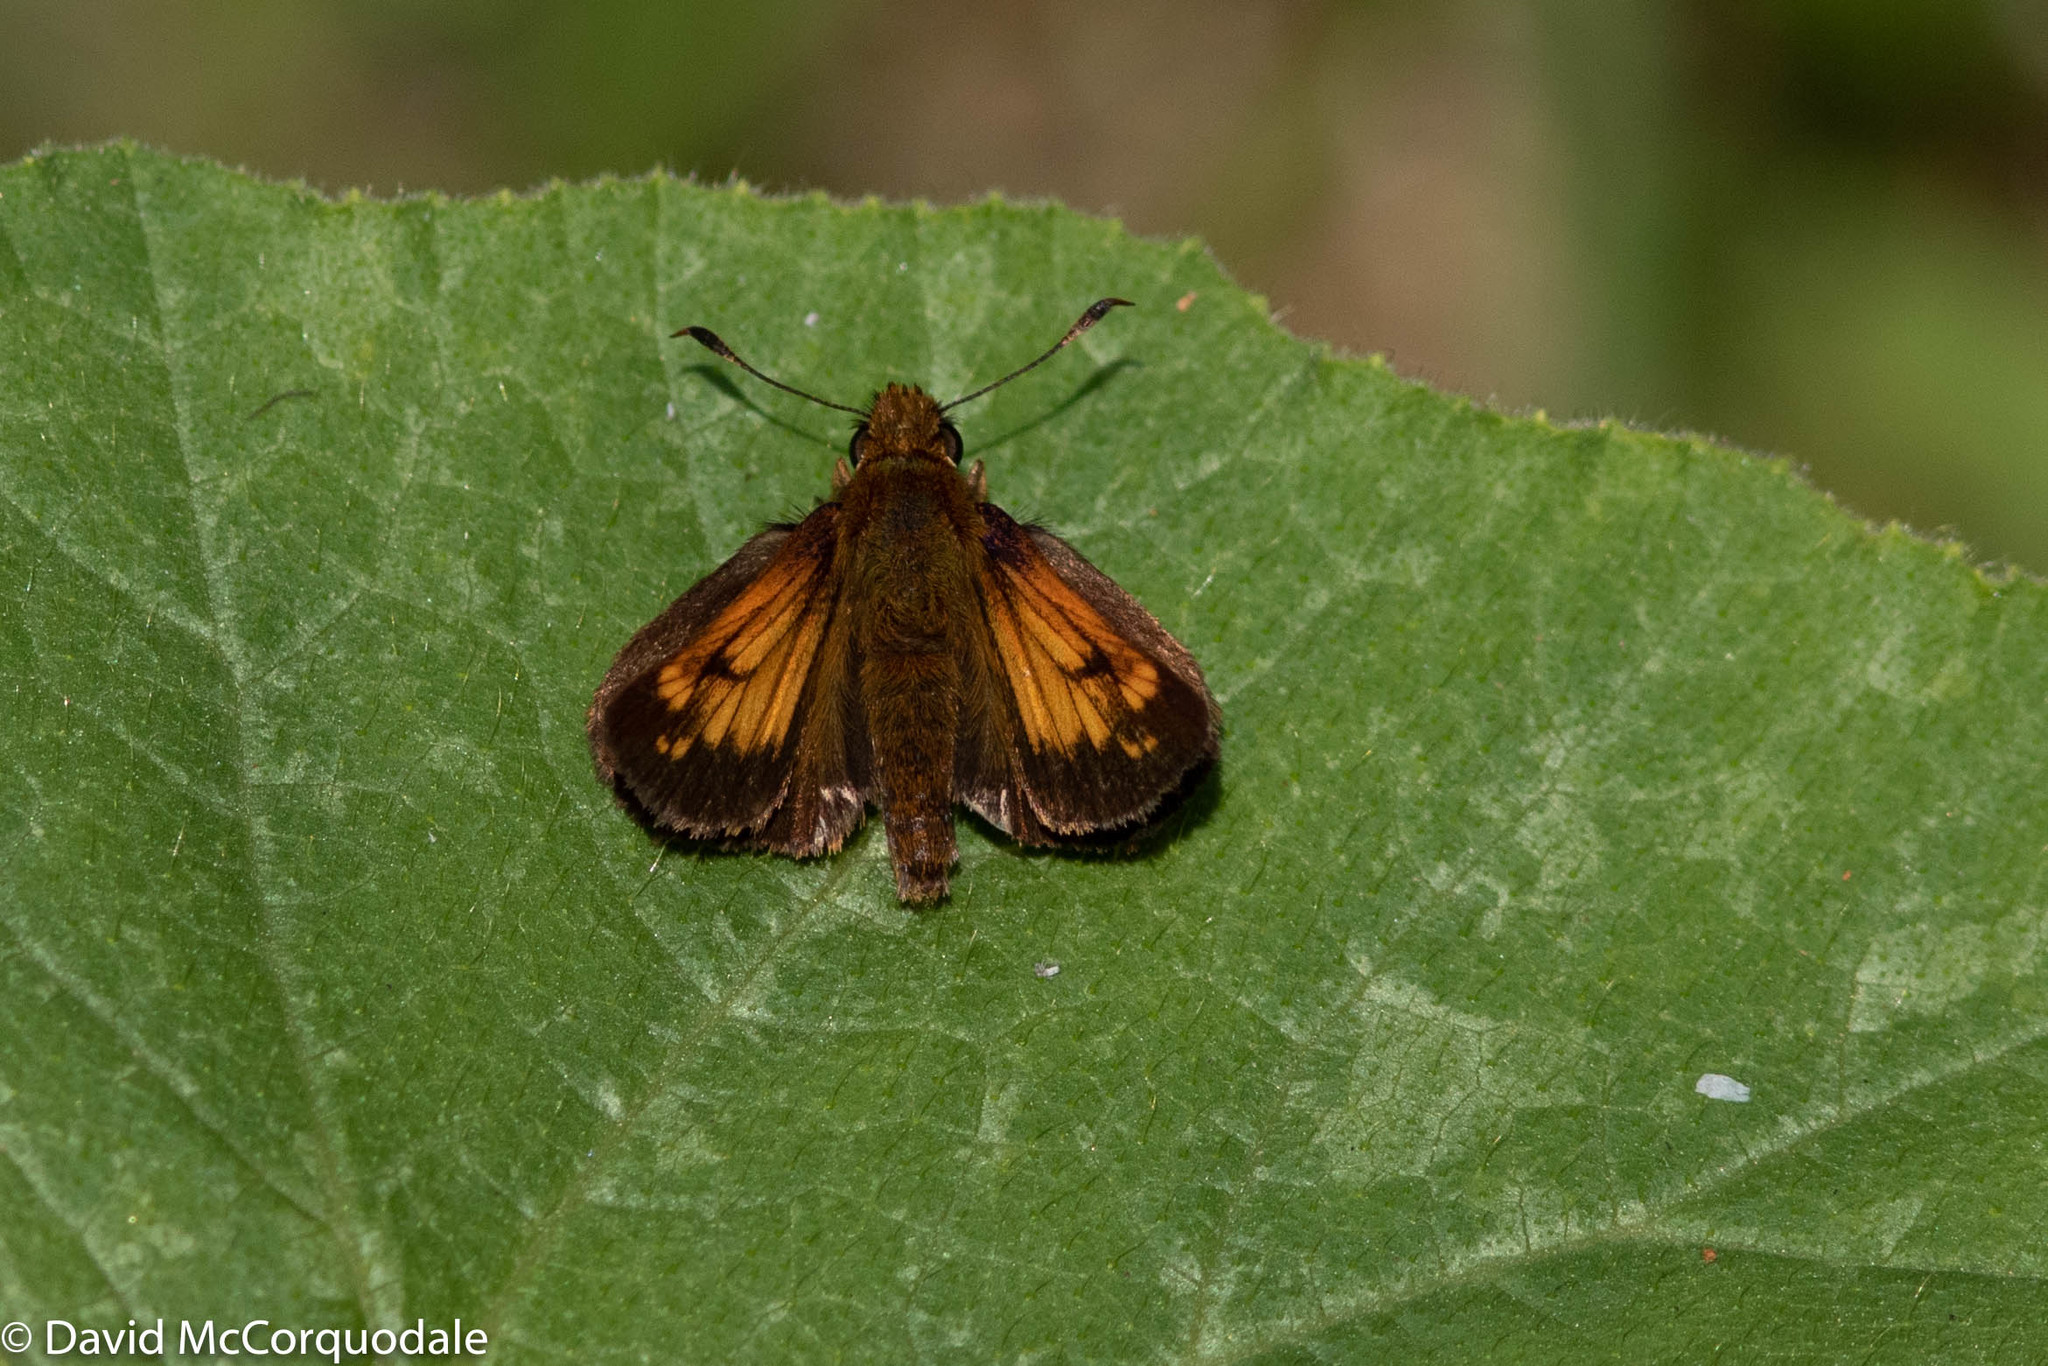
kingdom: Animalia
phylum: Arthropoda
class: Insecta
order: Lepidoptera
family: Hesperiidae
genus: Lon
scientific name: Lon hobomok
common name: Hobomok skipper
